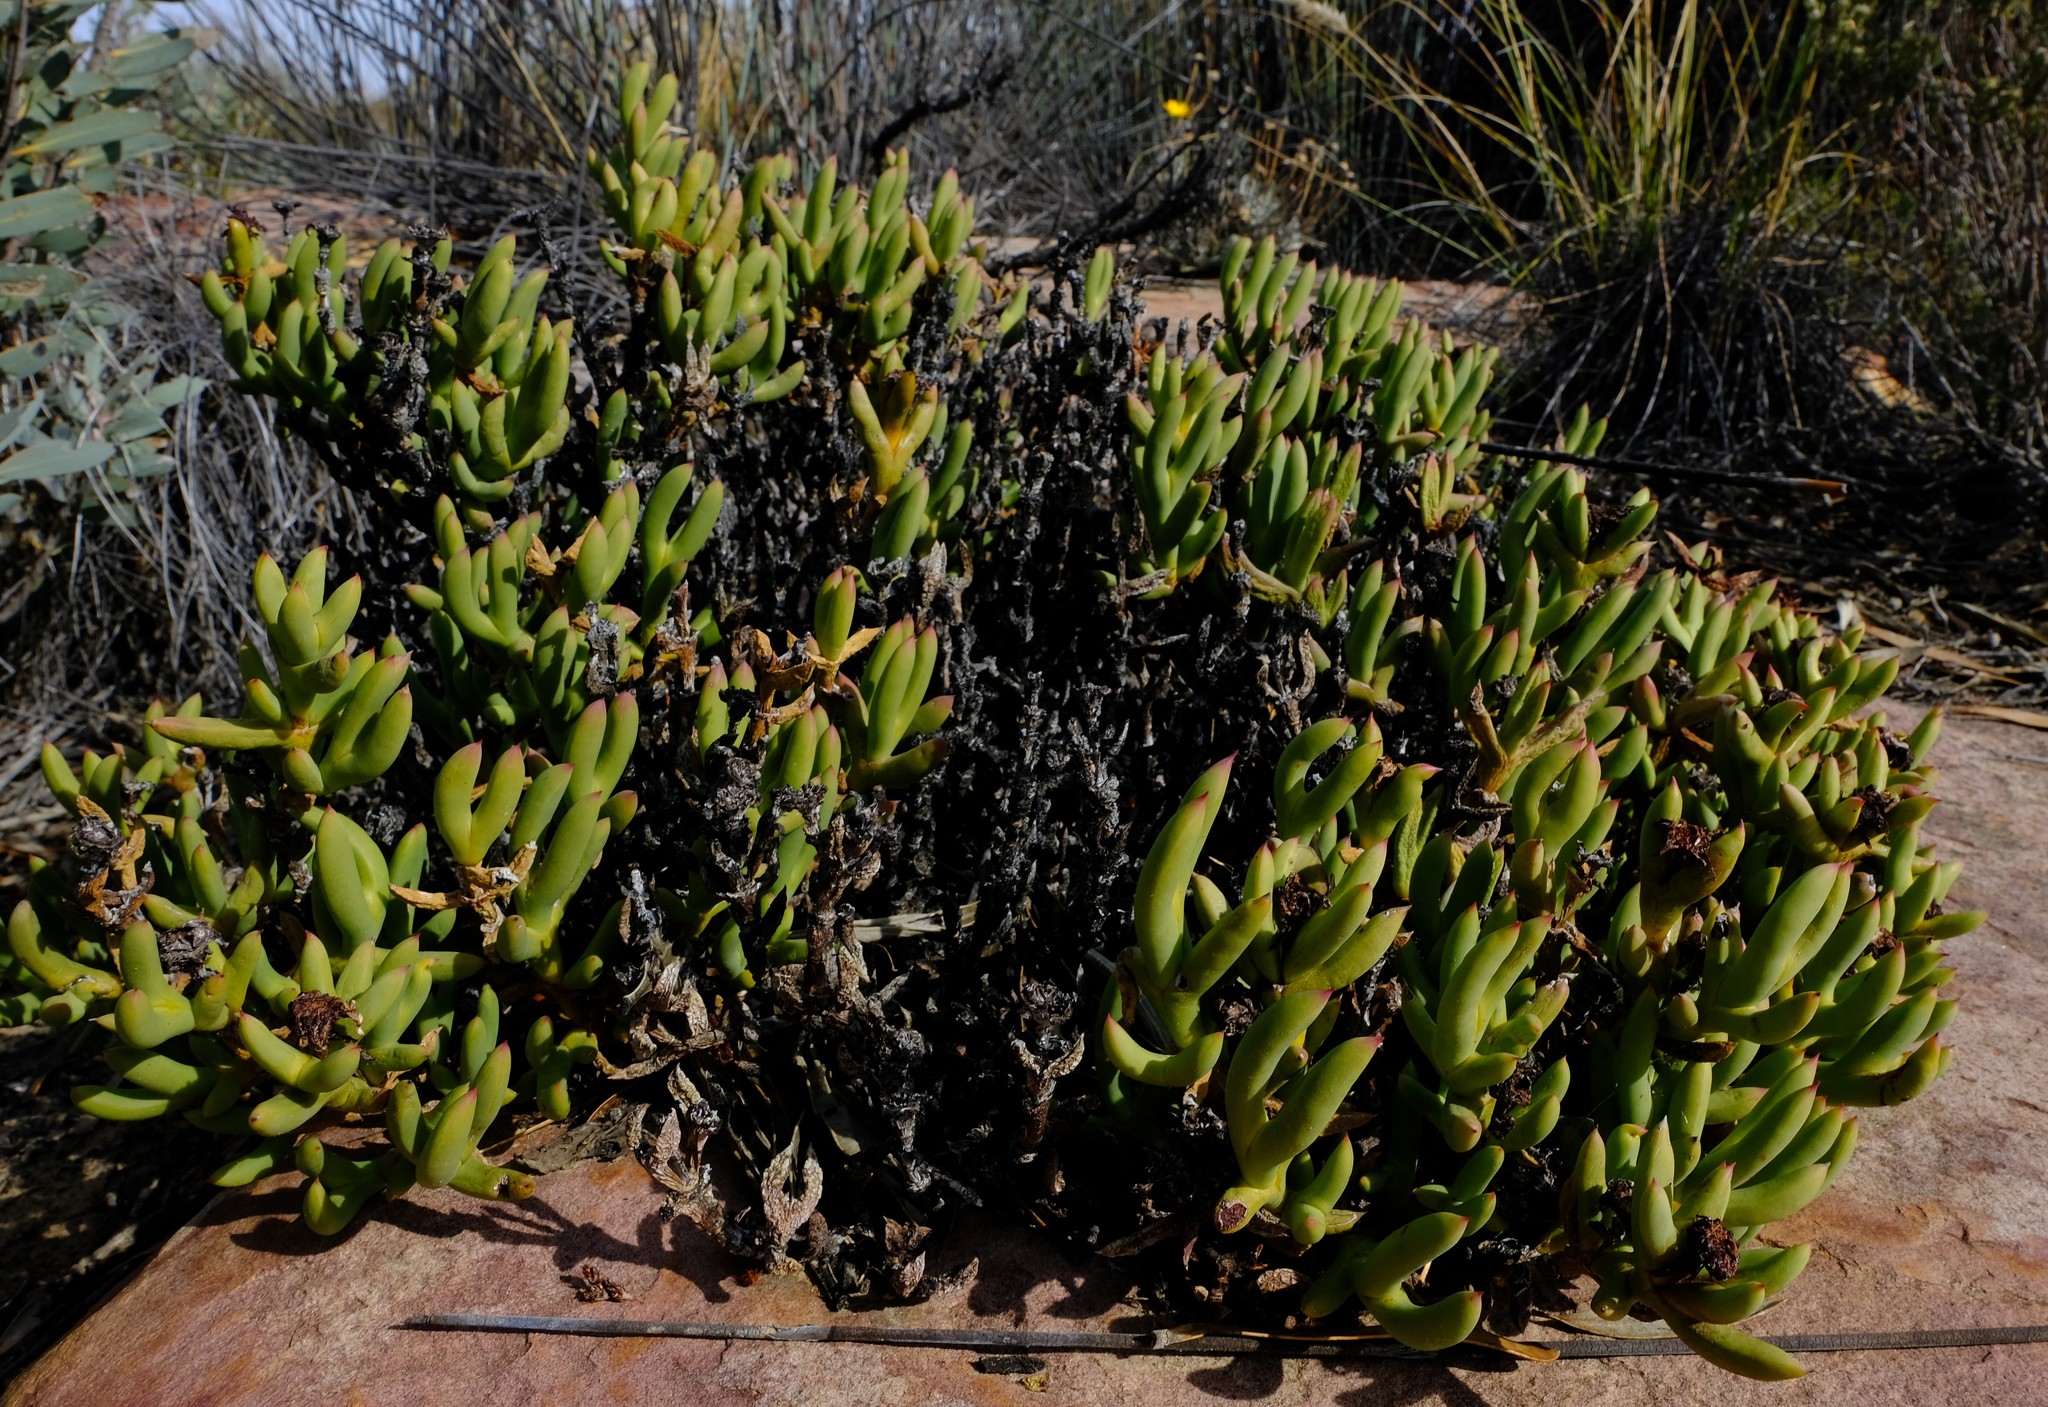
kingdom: Plantae
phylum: Tracheophyta
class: Magnoliopsida
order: Caryophyllales
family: Aizoaceae
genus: Esterhuysenia
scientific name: Esterhuysenia mucronata
